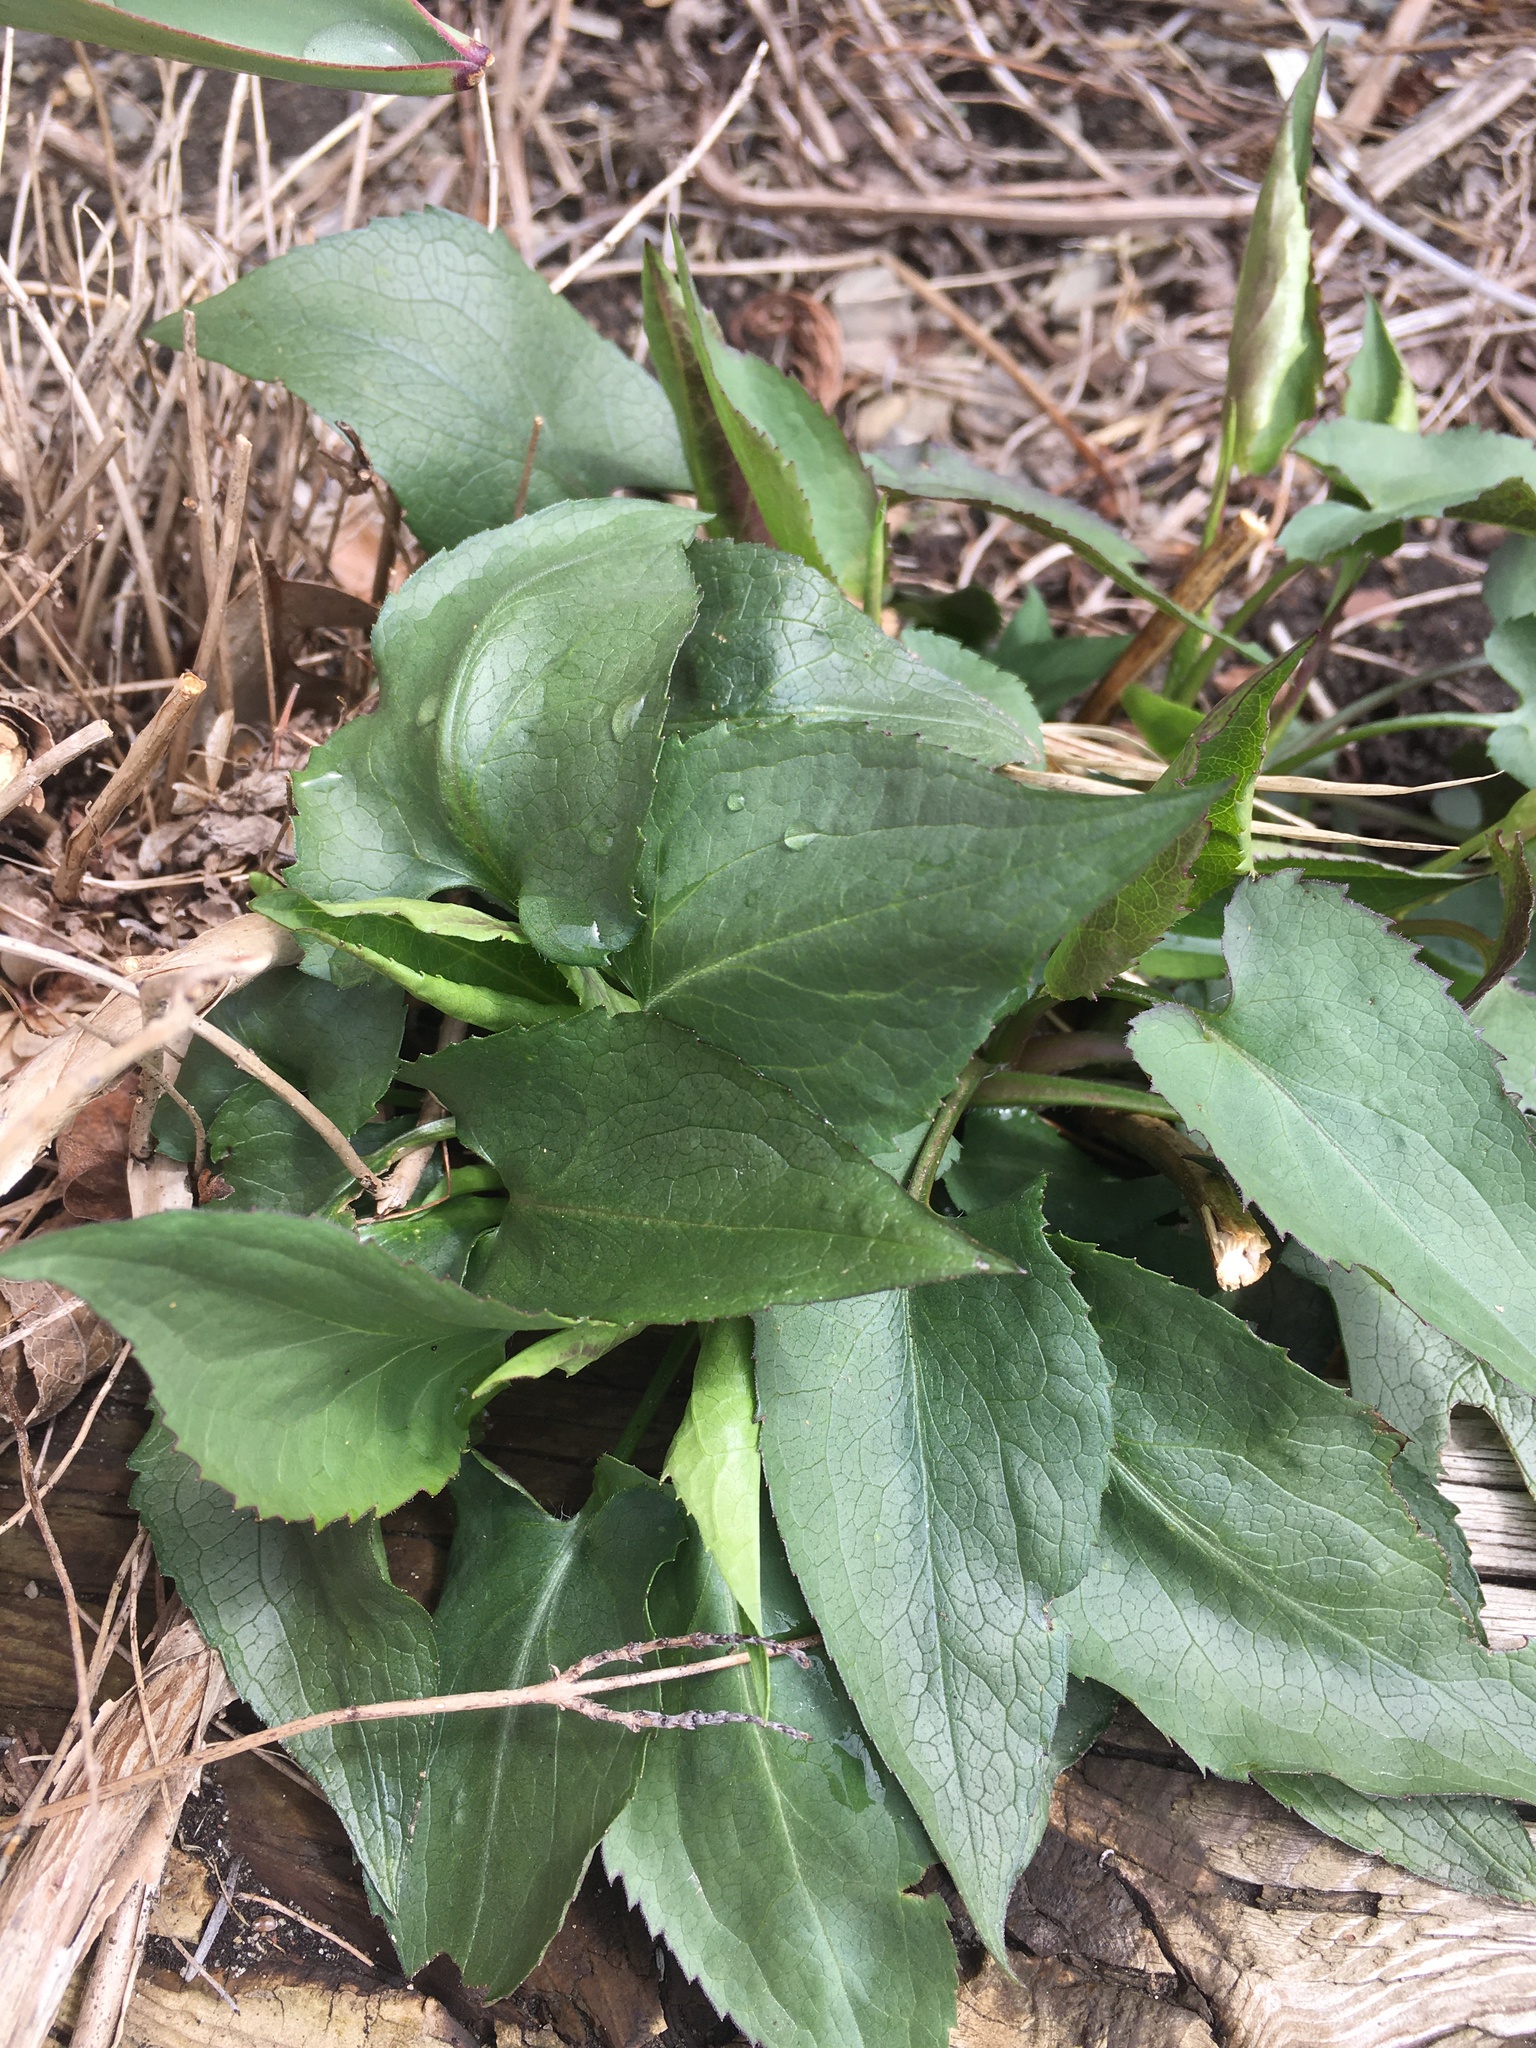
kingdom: Plantae
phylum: Tracheophyta
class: Magnoliopsida
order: Asterales
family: Asteraceae
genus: Symphyotrichum
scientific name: Symphyotrichum cordifolium
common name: Beeweed
